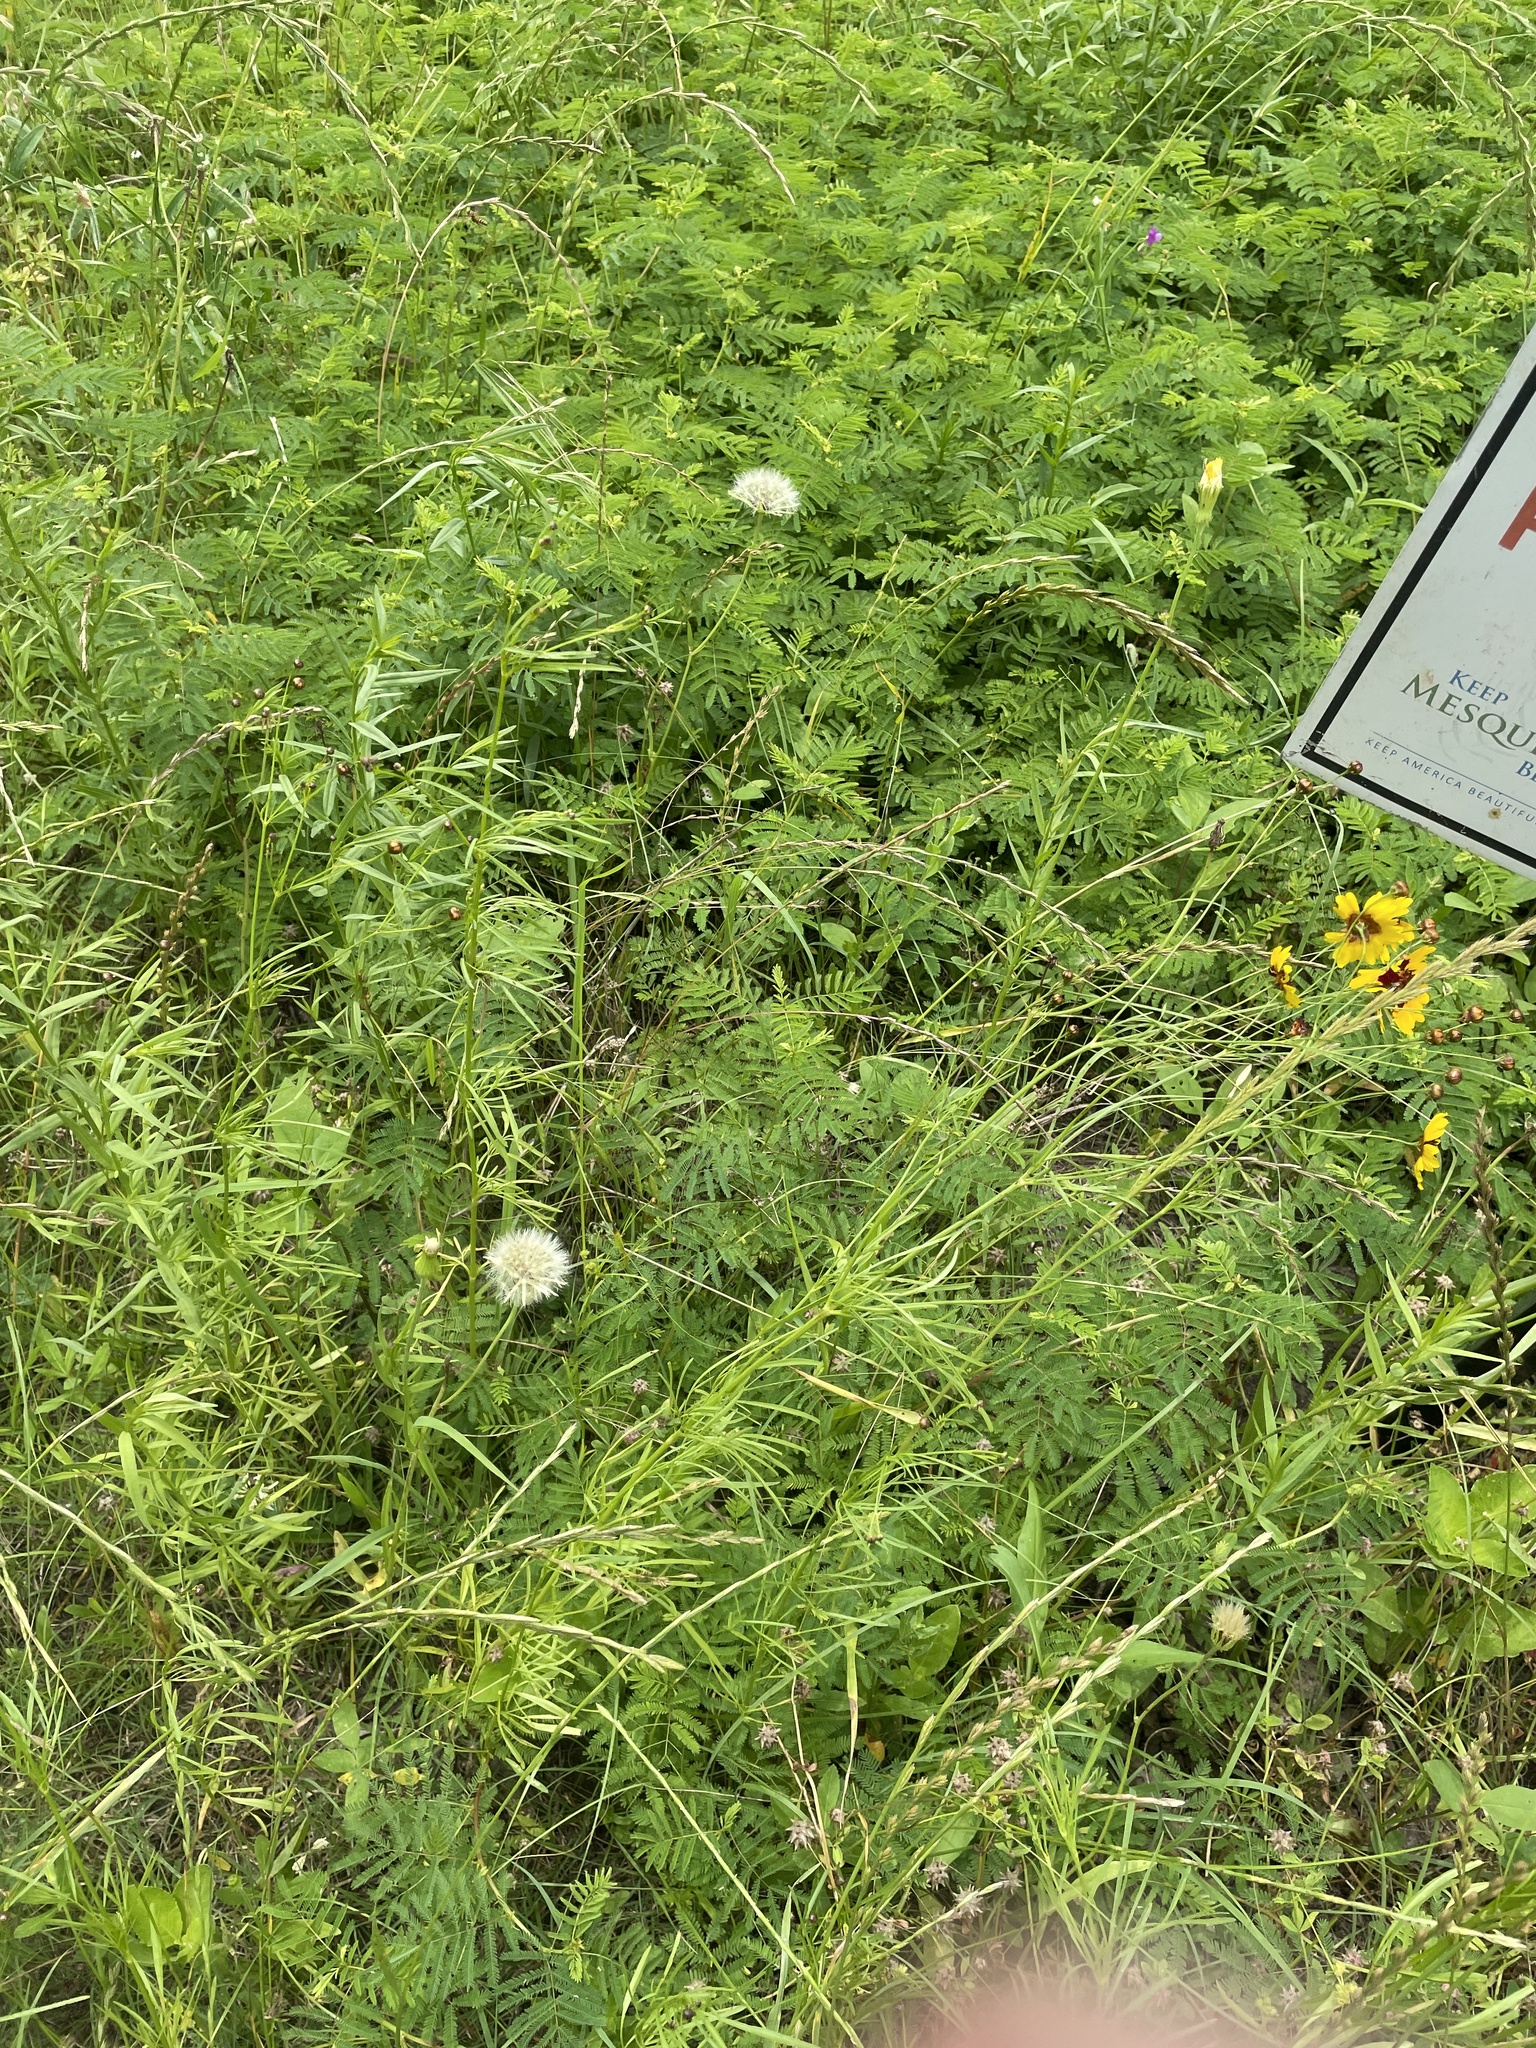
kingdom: Plantae
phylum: Tracheophyta
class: Magnoliopsida
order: Asterales
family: Asteraceae
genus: Coreopsis
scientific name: Coreopsis tinctoria
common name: Garden tickseed
